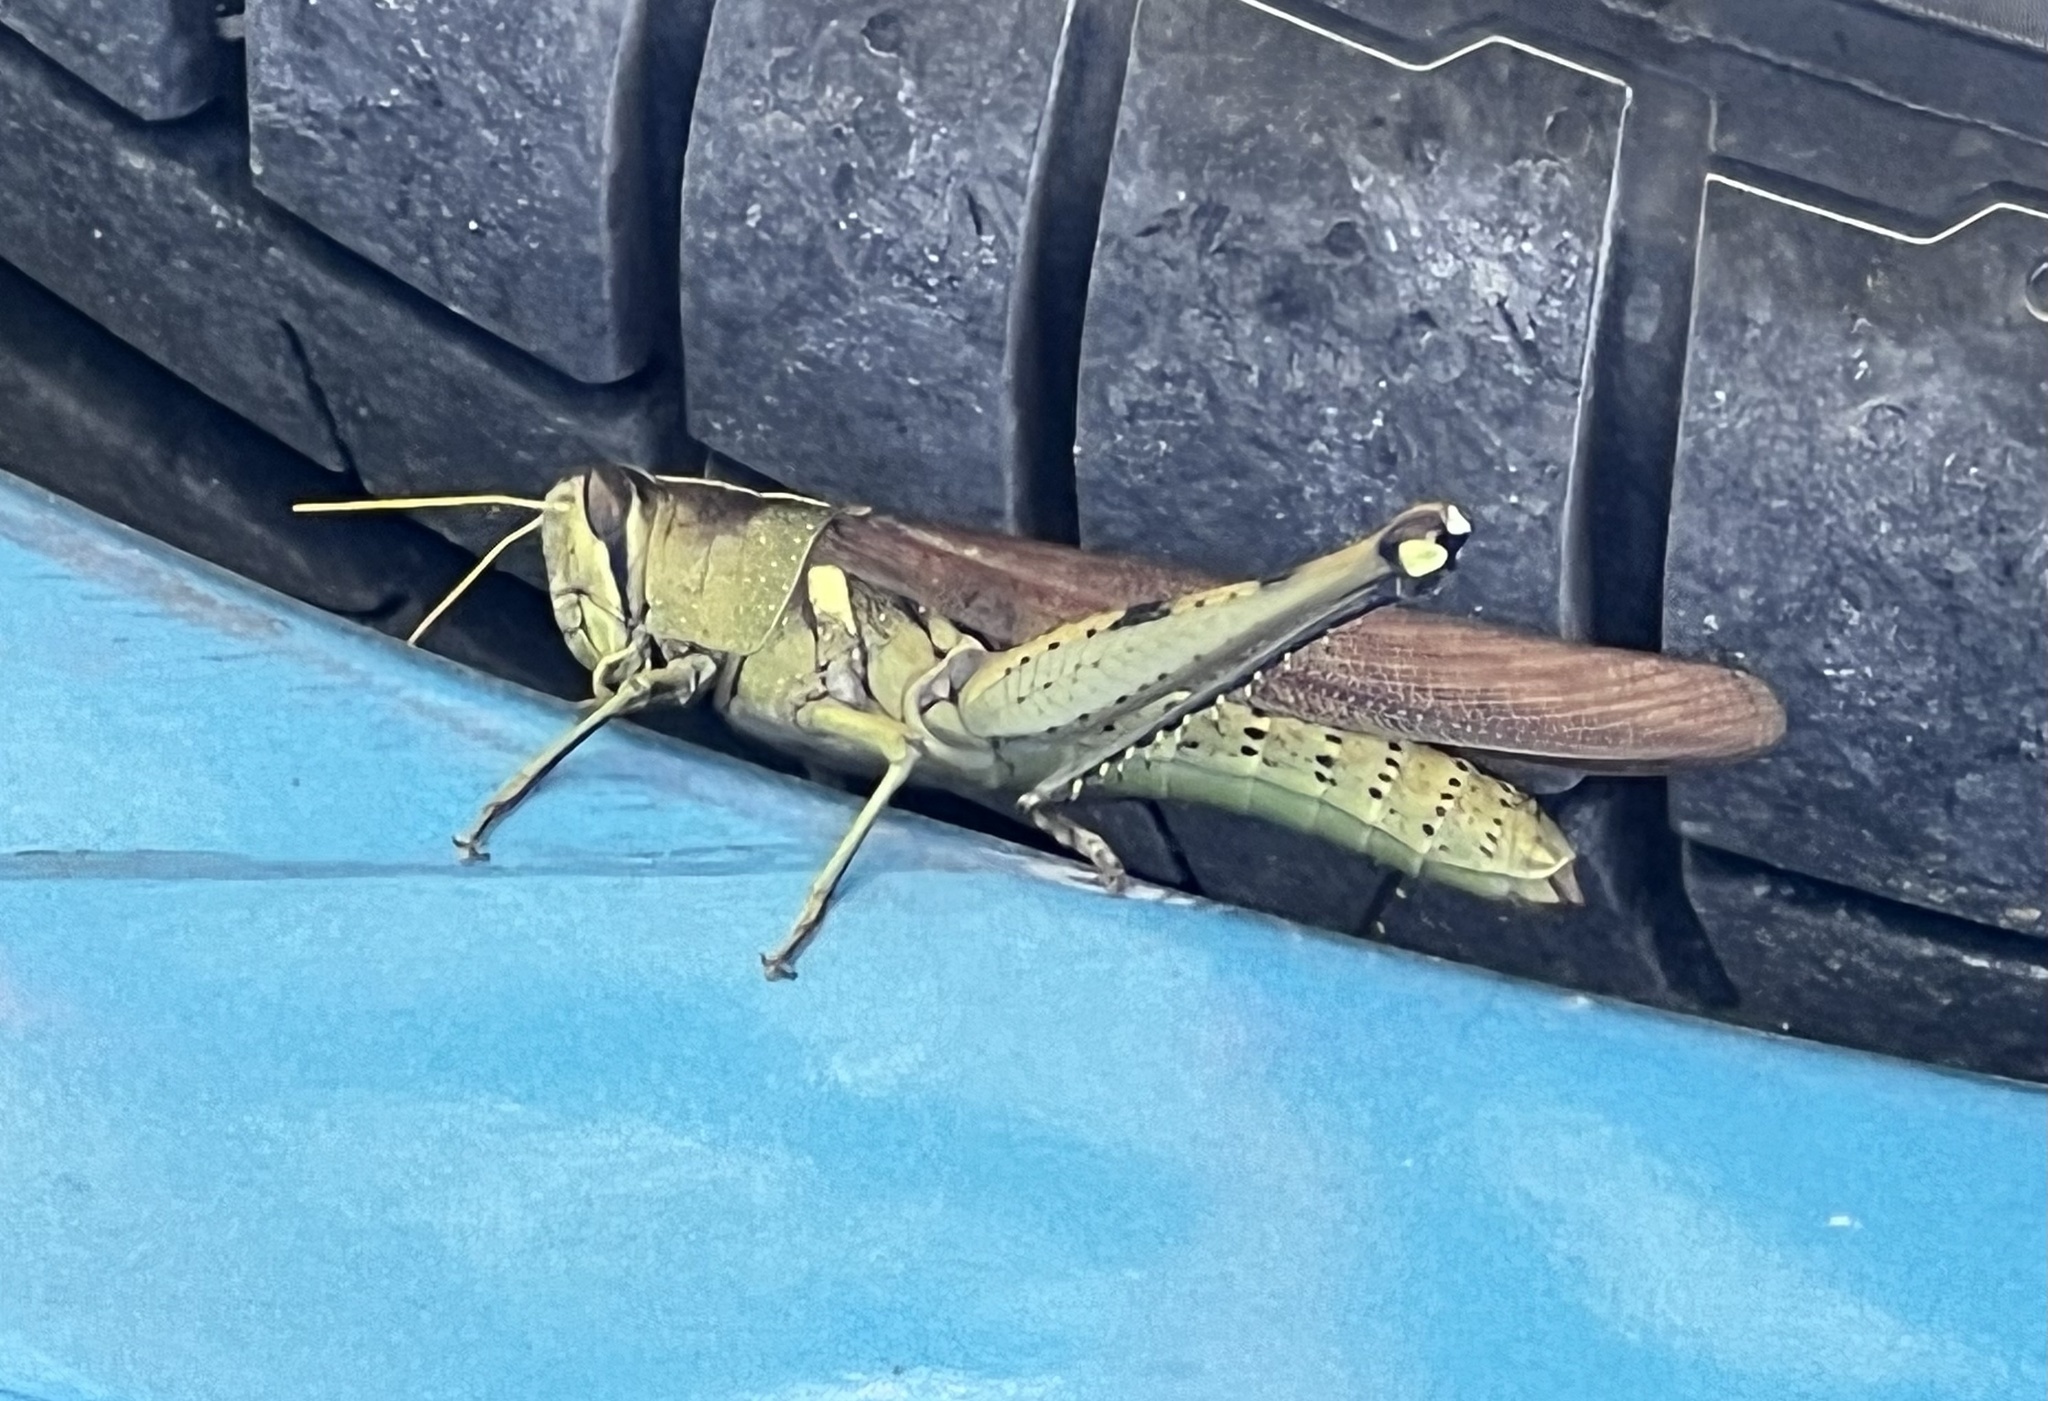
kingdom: Animalia
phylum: Arthropoda
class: Insecta
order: Orthoptera
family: Acrididae
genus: Schistocerca
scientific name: Schistocerca obscura
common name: Obscure bird grasshopper
